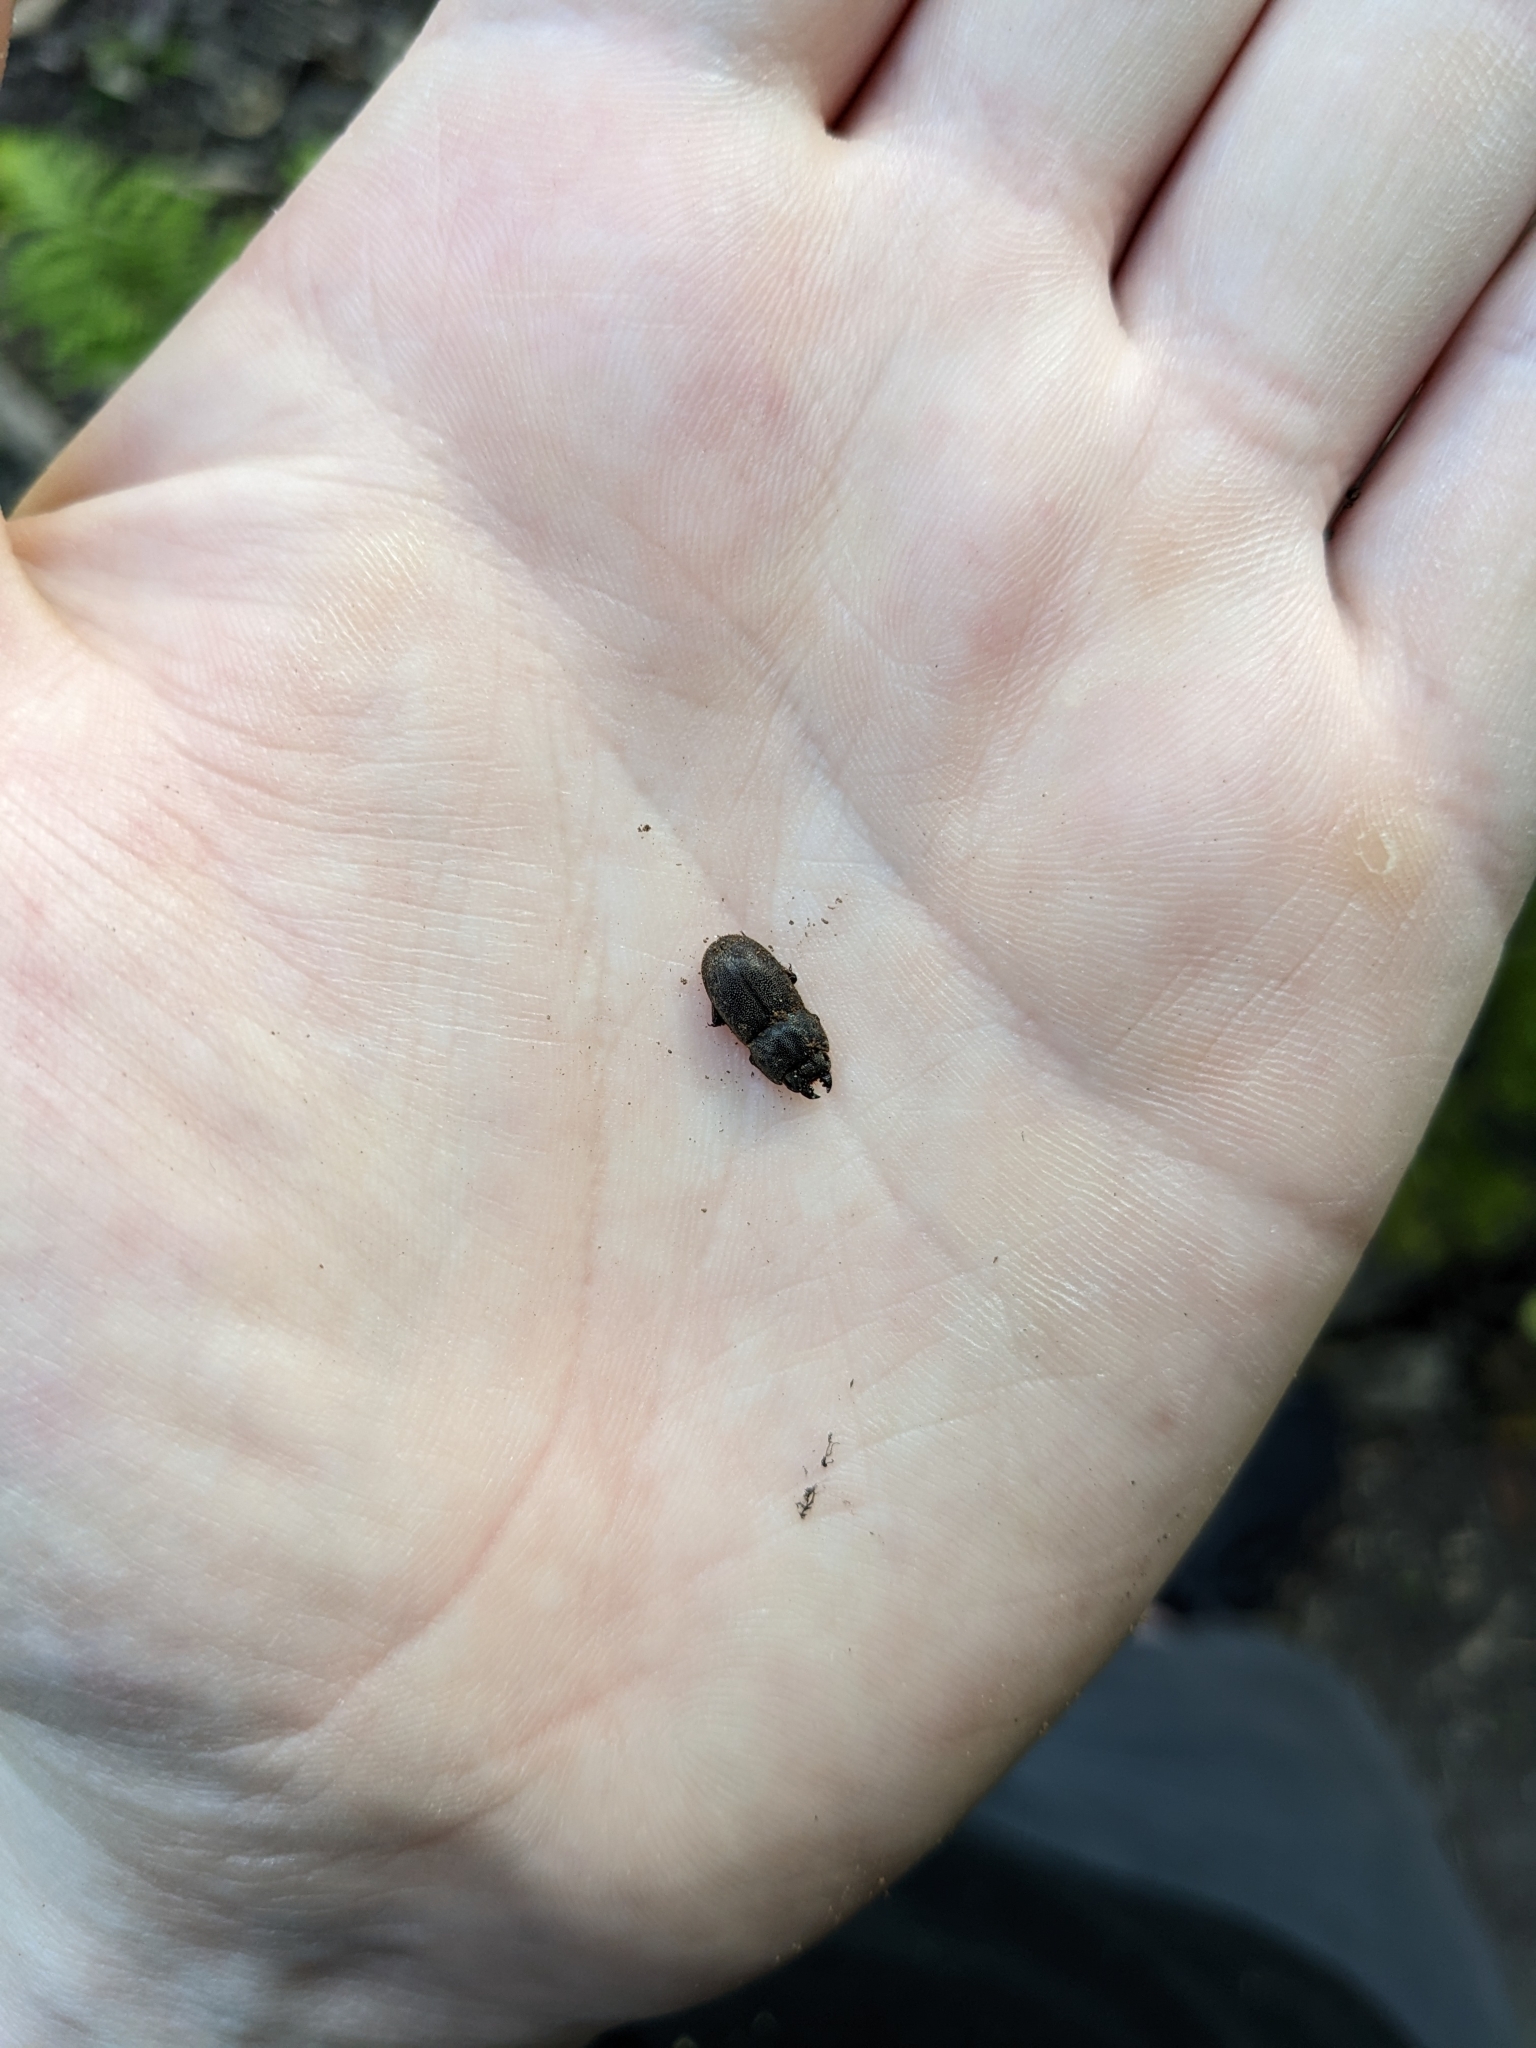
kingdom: Animalia
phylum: Arthropoda
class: Insecta
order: Coleoptera
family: Lucanidae
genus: Paralissotes
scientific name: Paralissotes stewarti
